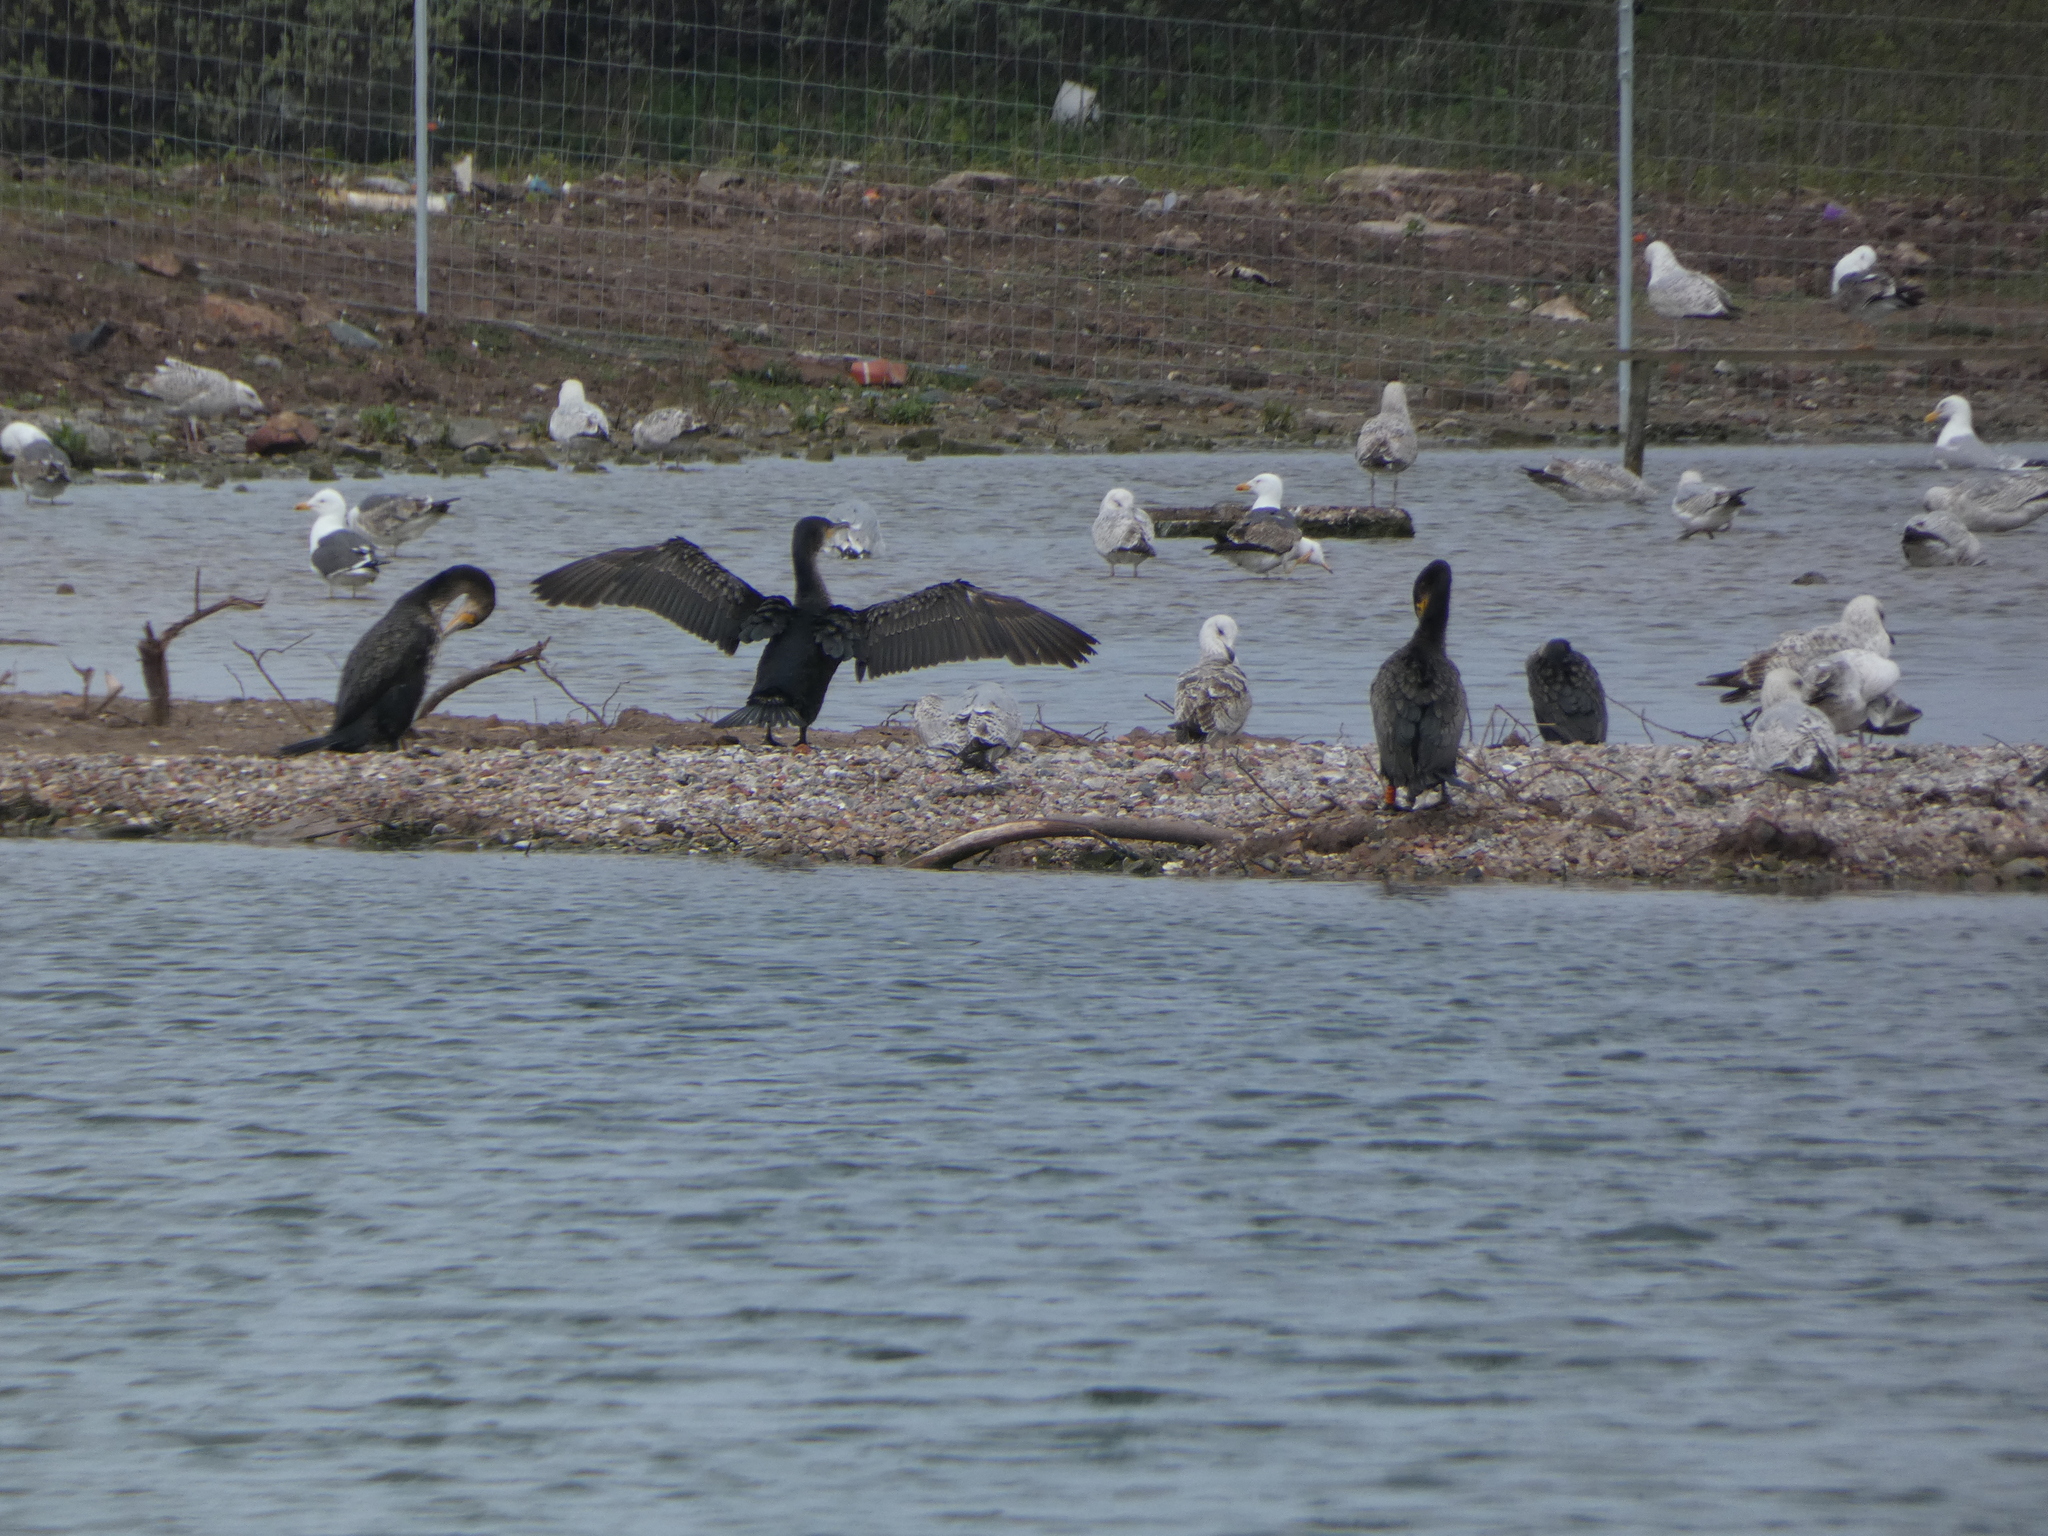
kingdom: Animalia
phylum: Chordata
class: Aves
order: Suliformes
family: Phalacrocoracidae
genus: Phalacrocorax
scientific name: Phalacrocorax carbo
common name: Great cormorant
